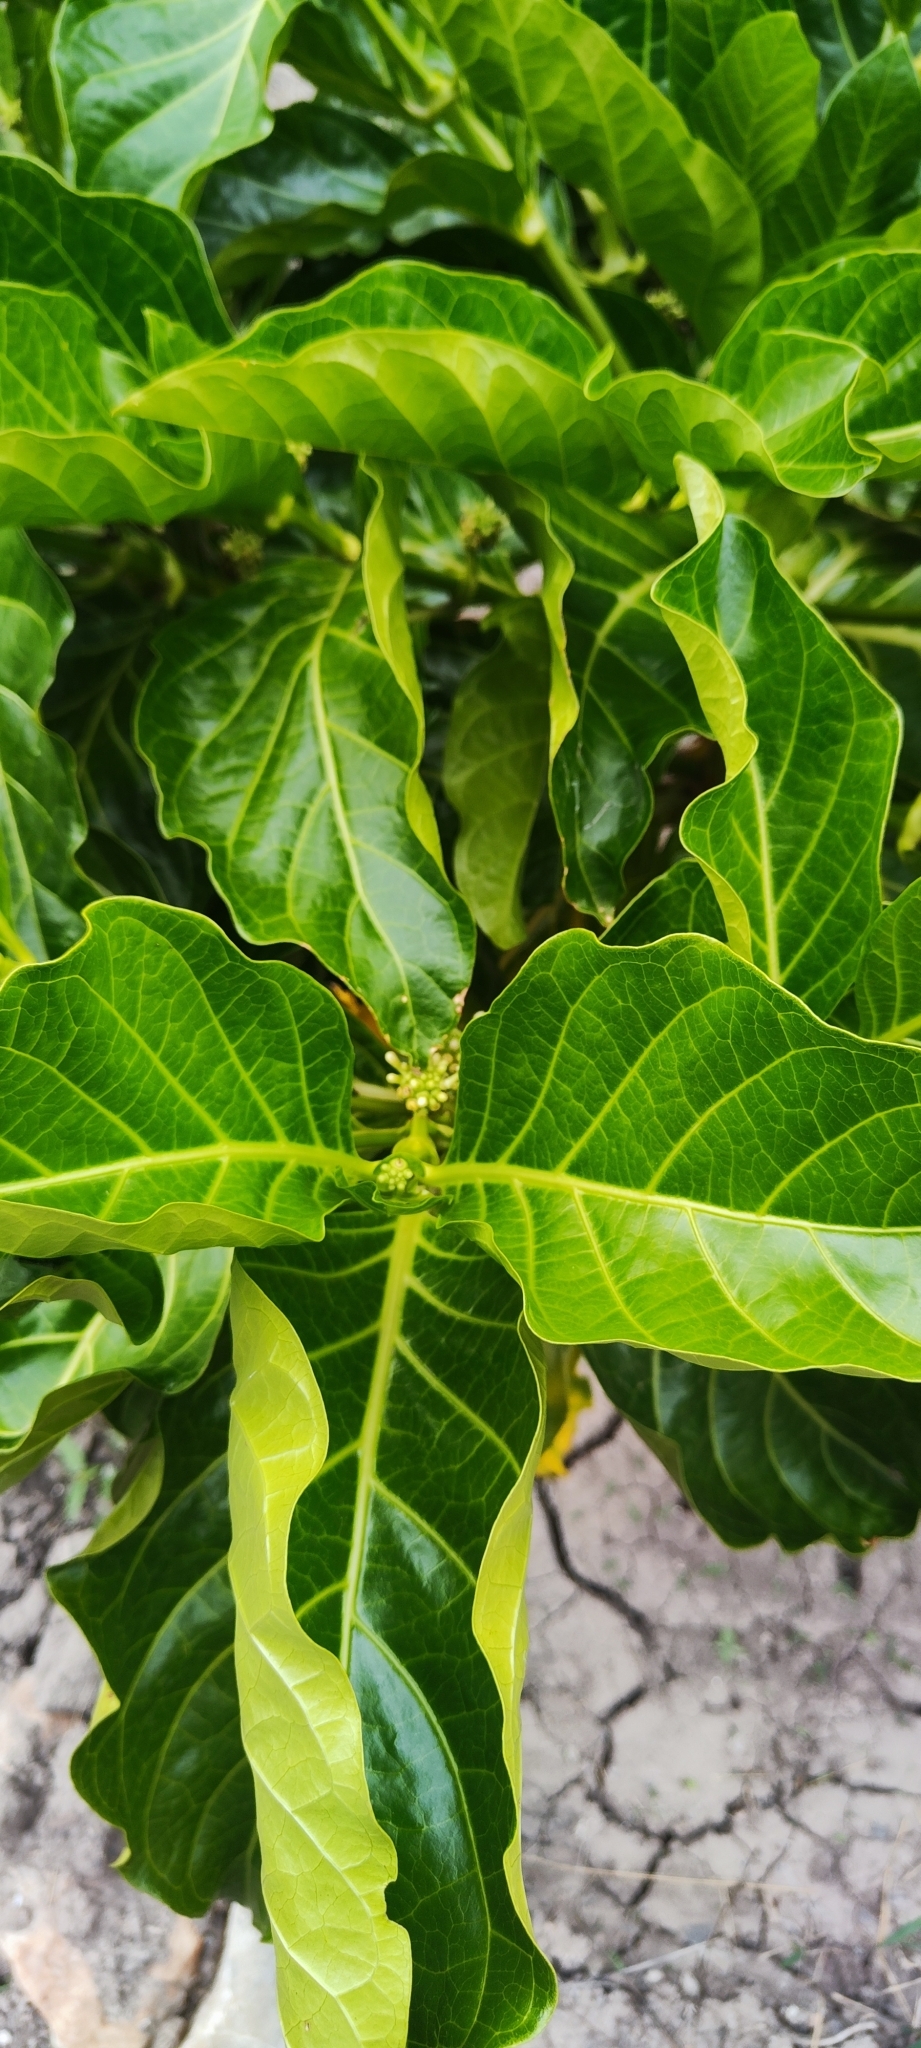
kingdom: Plantae
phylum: Tracheophyta
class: Magnoliopsida
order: Gentianales
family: Rubiaceae
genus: Morinda
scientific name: Morinda citrifolia
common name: Indian-mulberry
